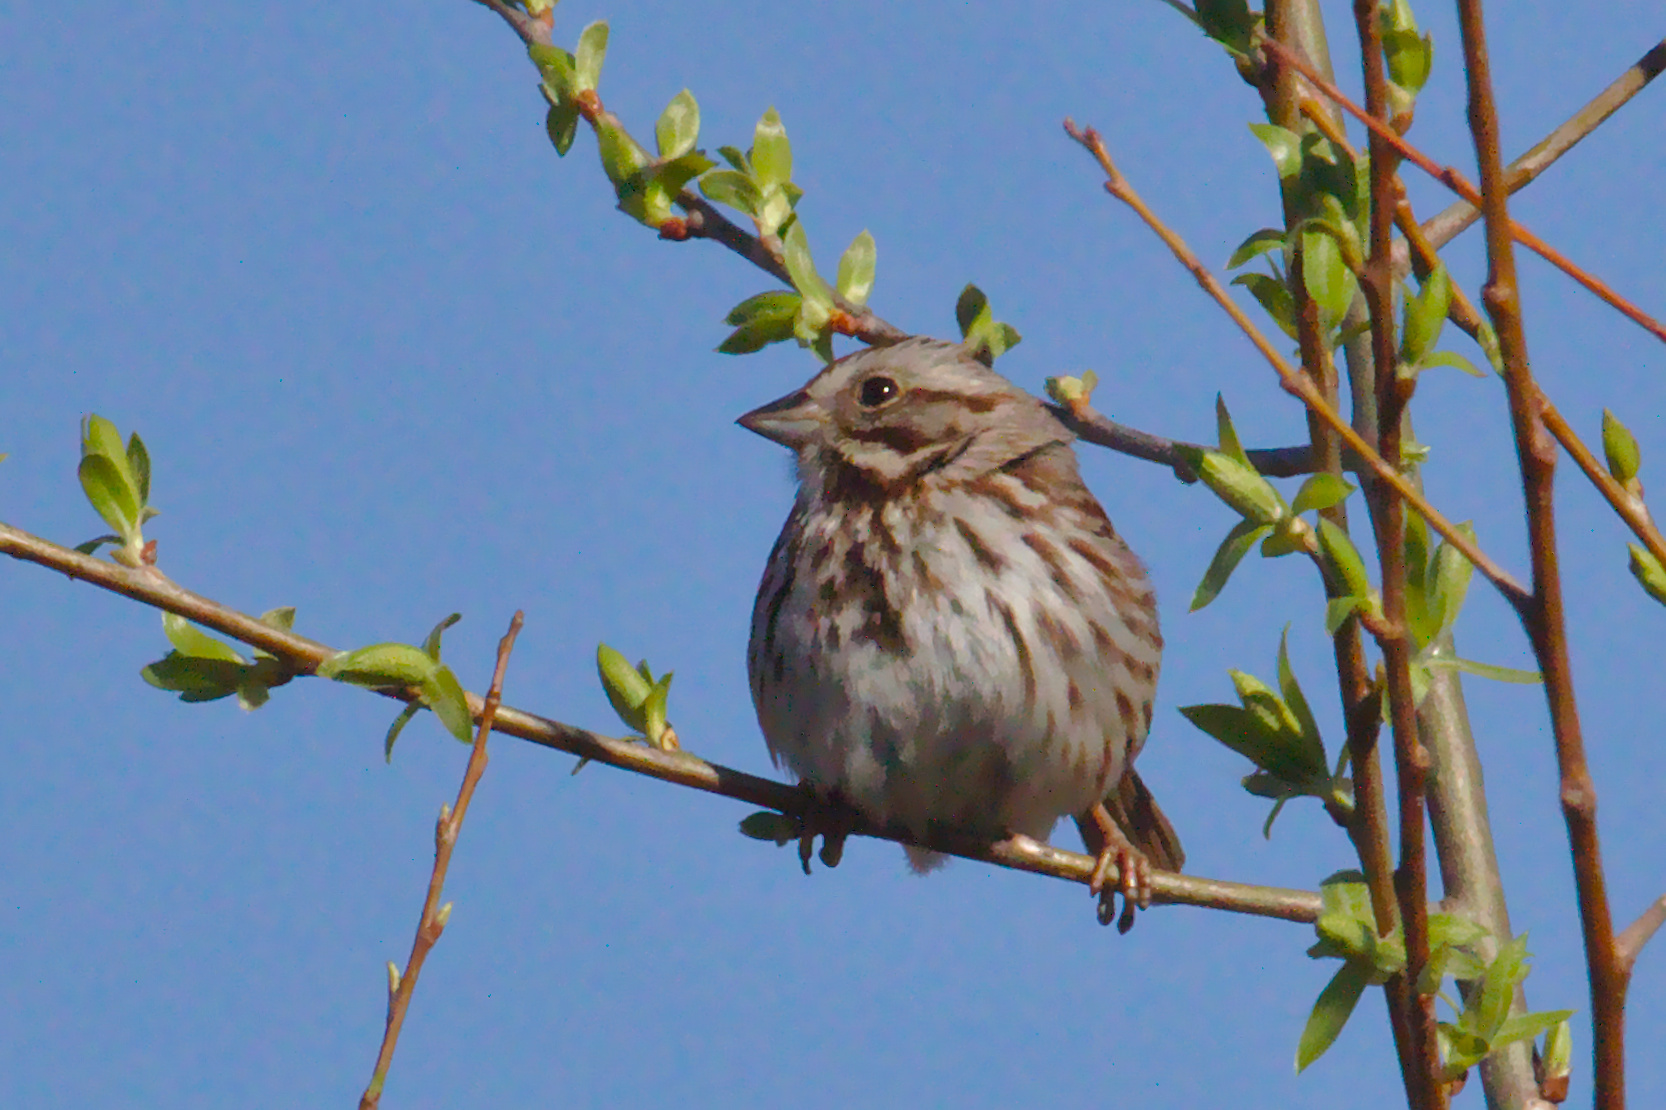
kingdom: Animalia
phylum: Chordata
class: Aves
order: Passeriformes
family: Passerellidae
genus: Melospiza
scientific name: Melospiza melodia
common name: Song sparrow
